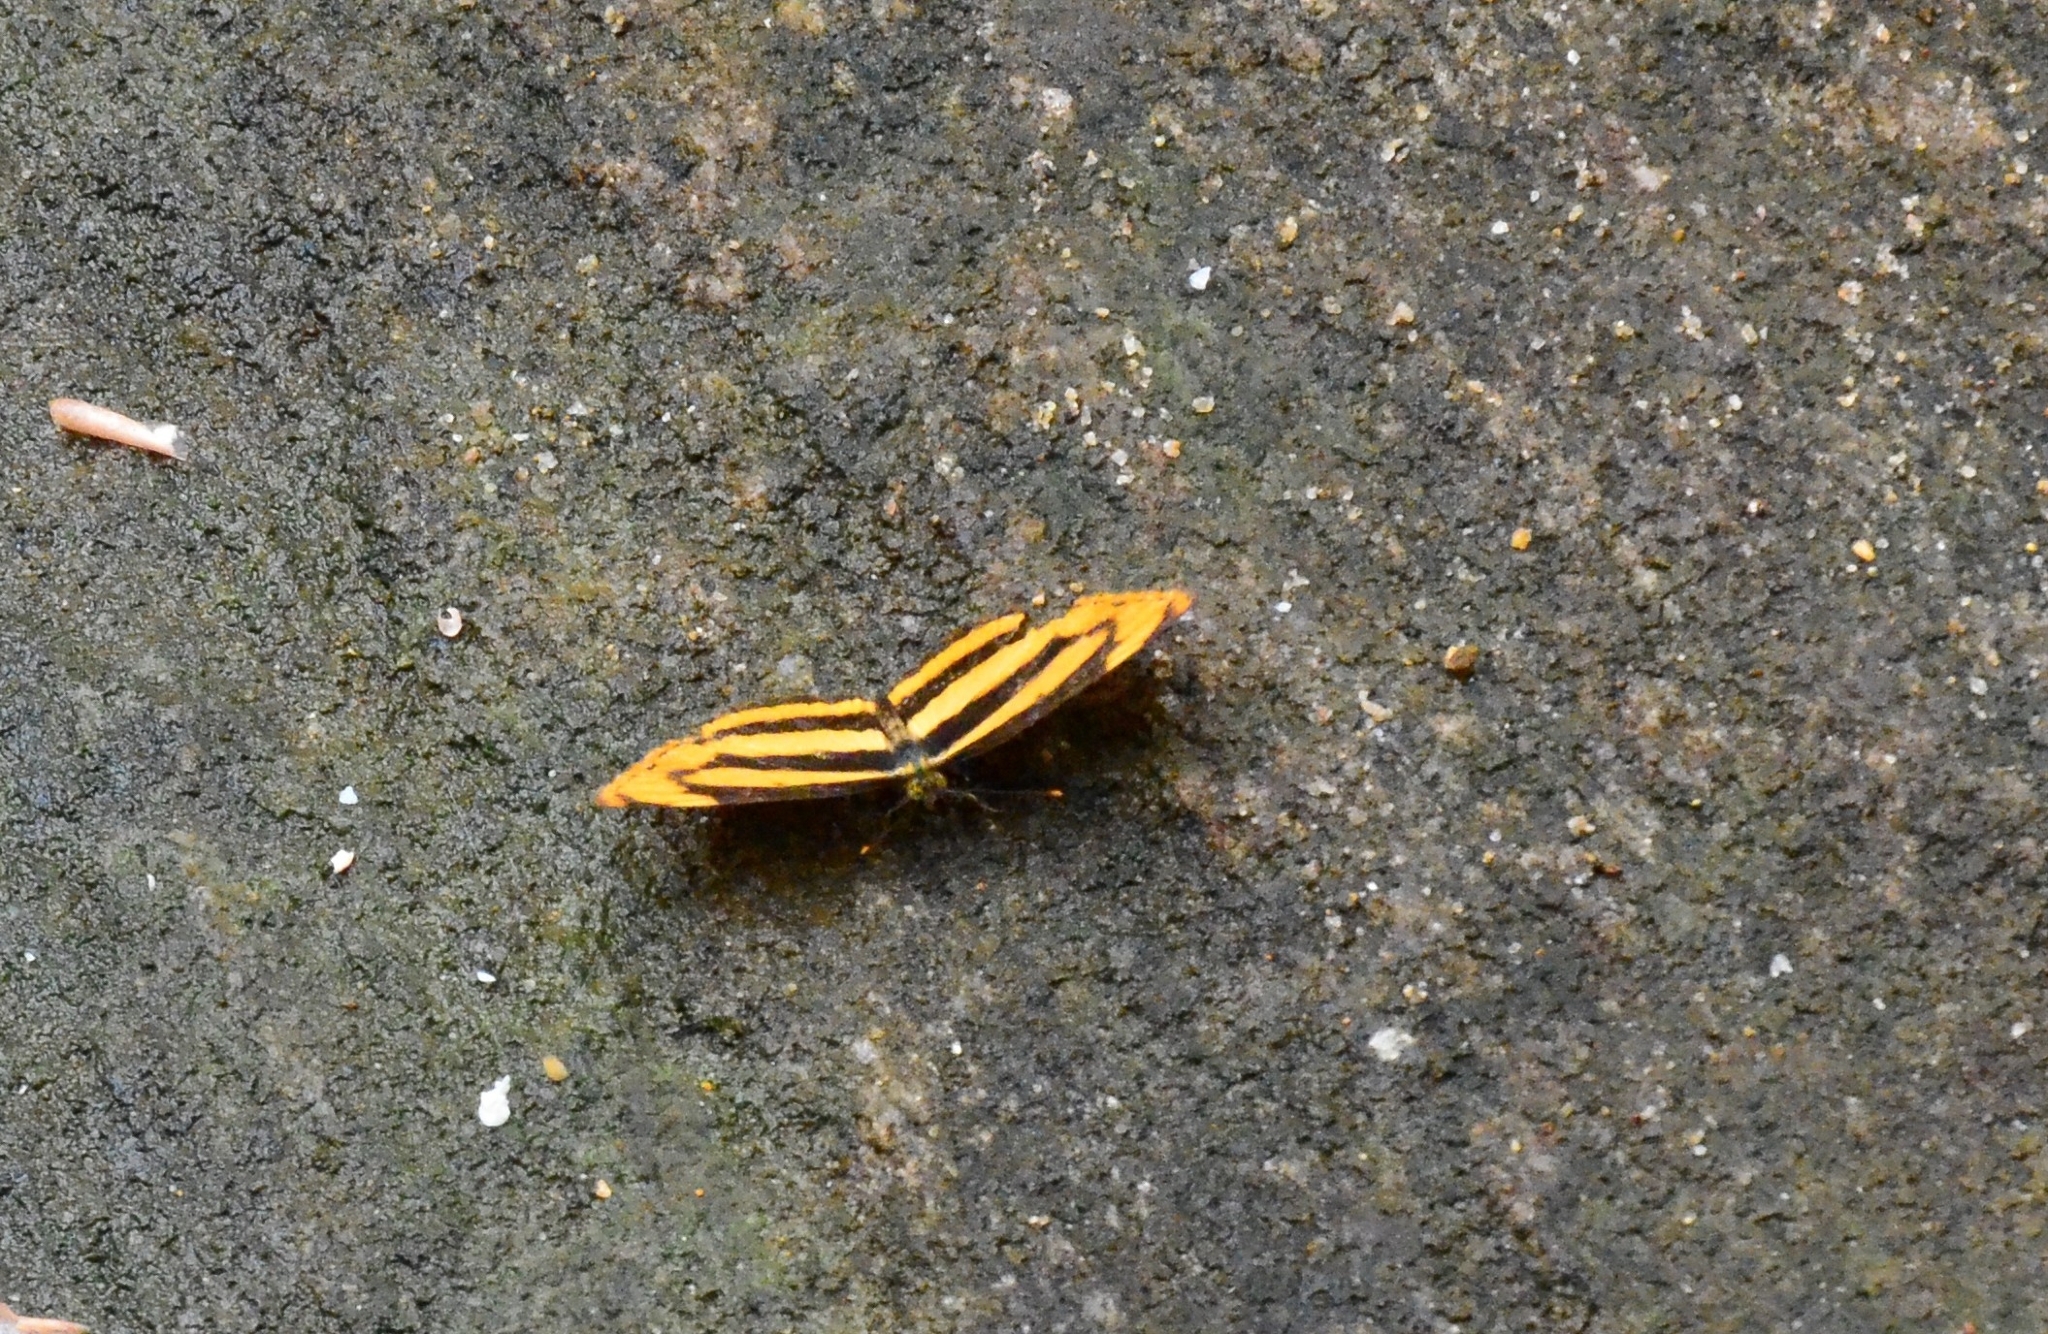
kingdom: Animalia
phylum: Arthropoda
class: Insecta
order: Lepidoptera
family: Nymphalidae
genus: Pantoporia
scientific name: Pantoporia sandaka
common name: Extra lascar
